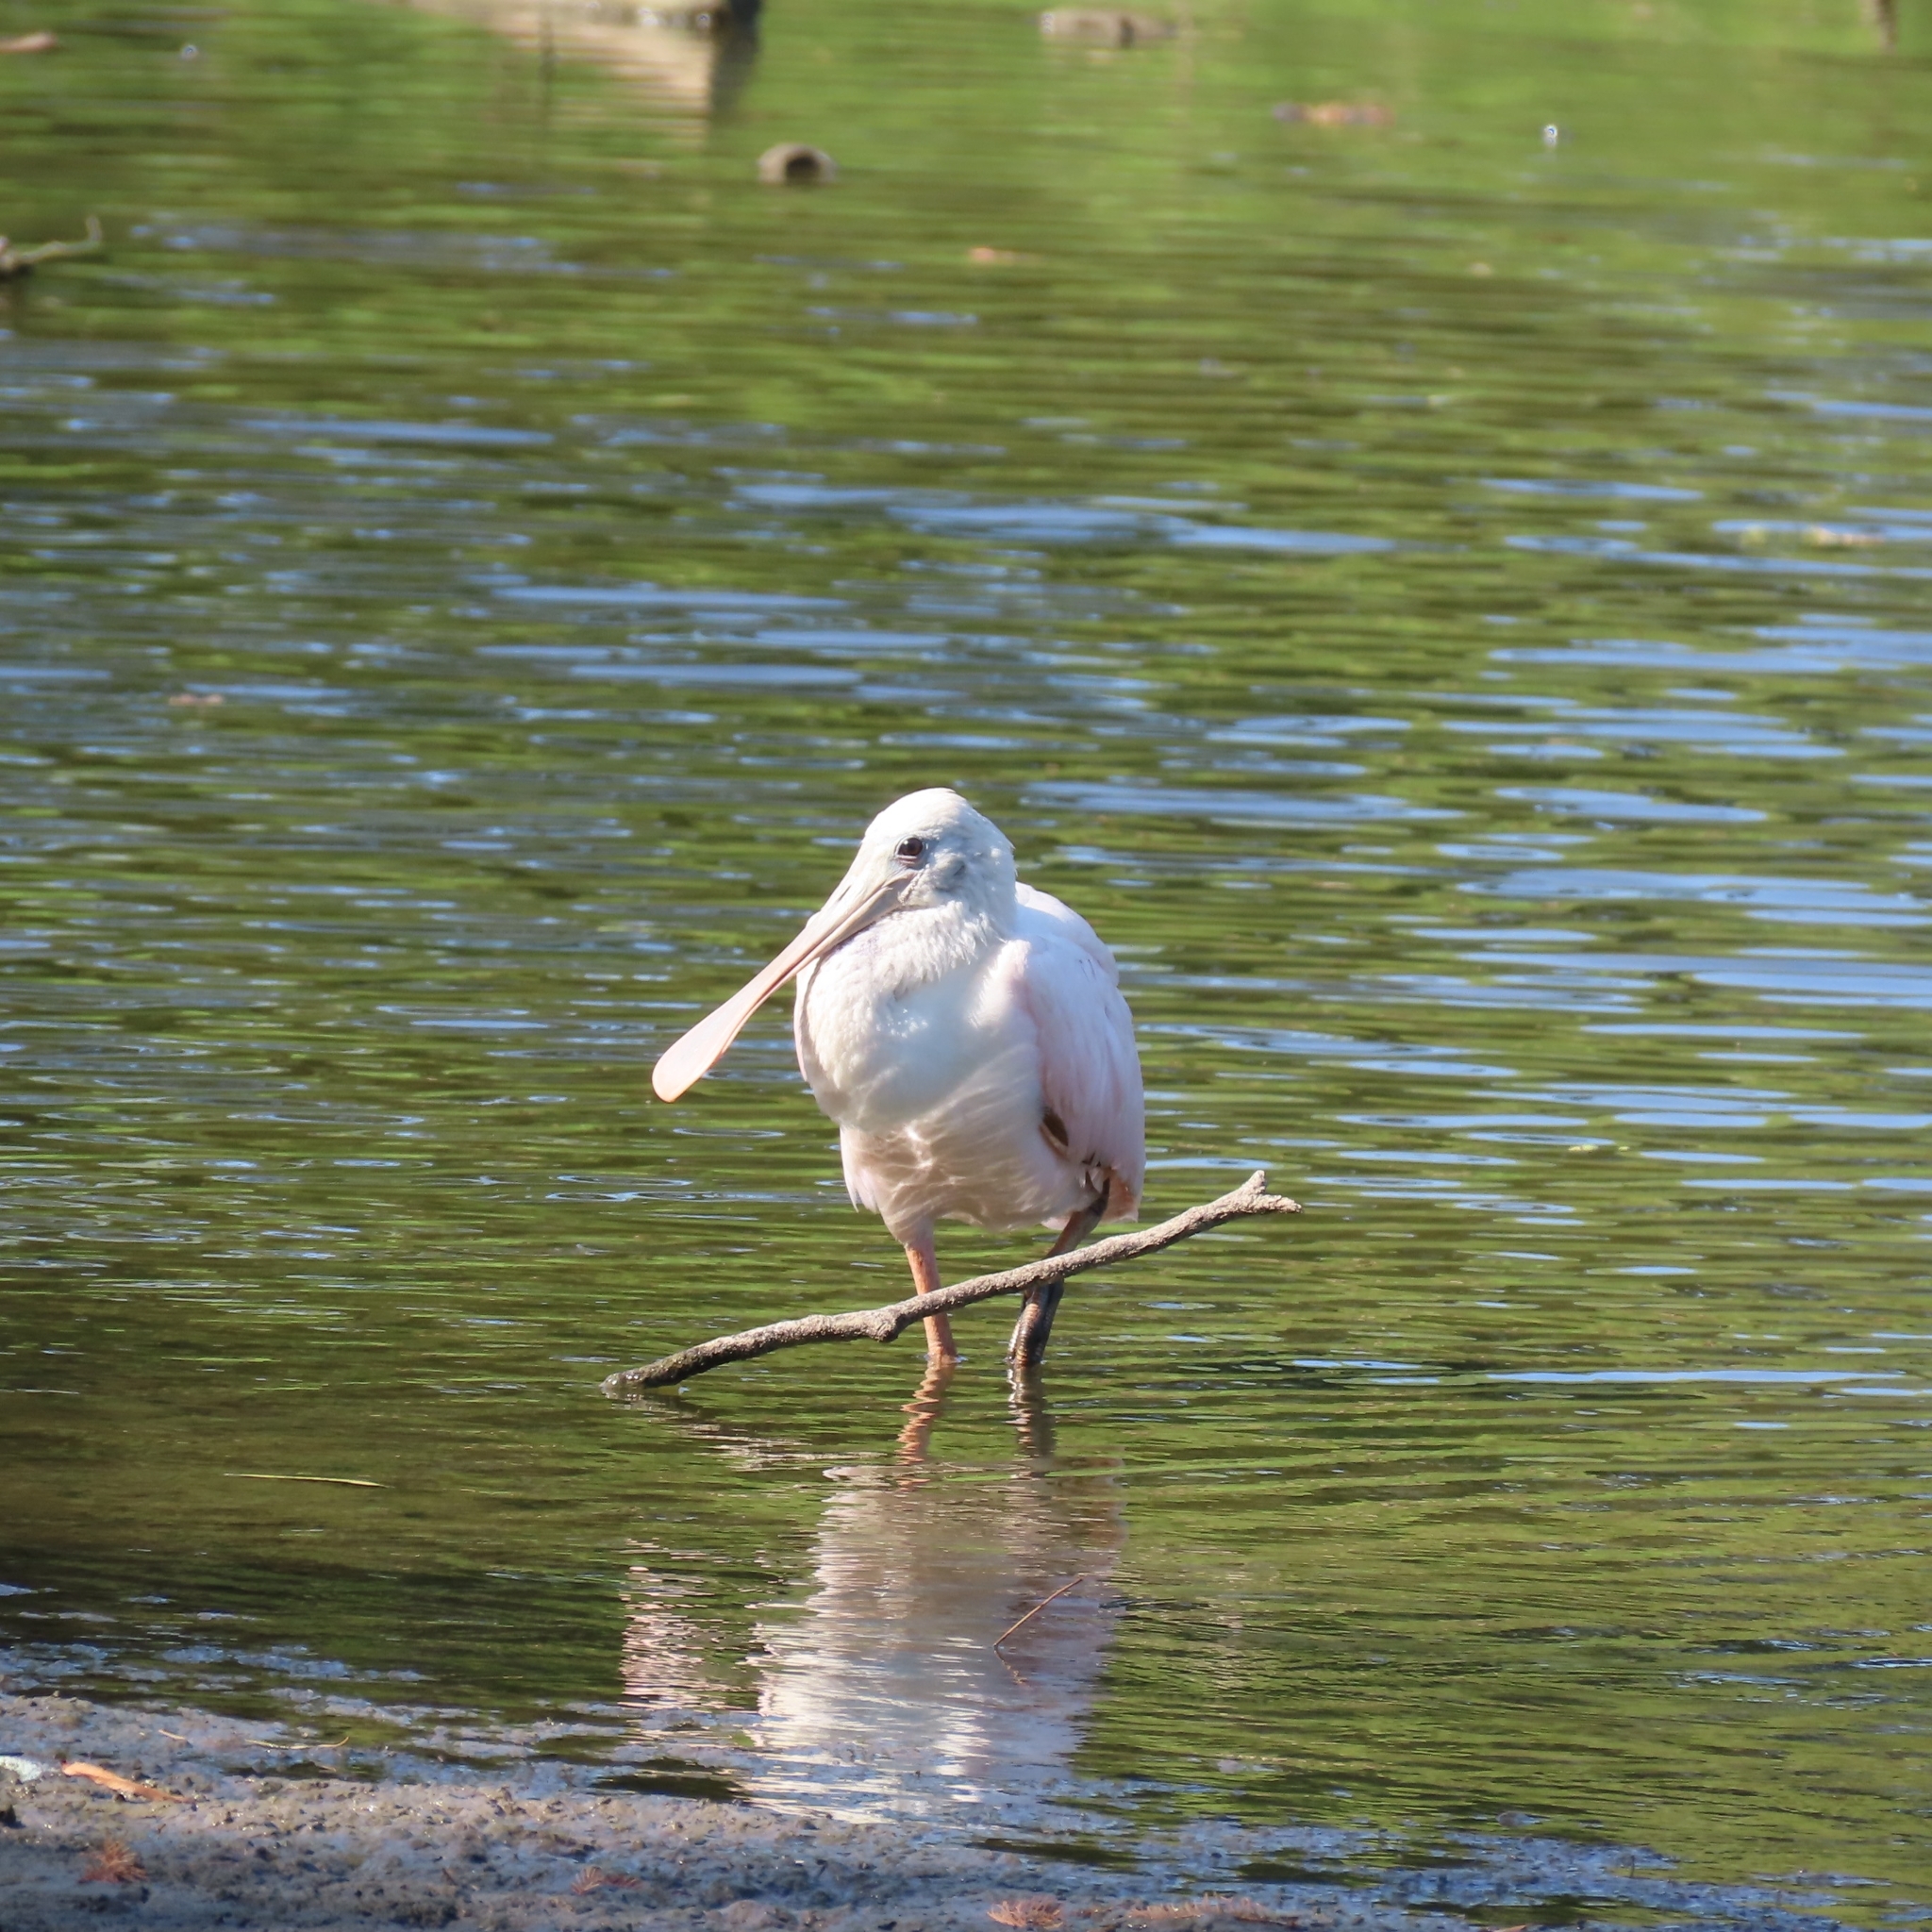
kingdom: Animalia
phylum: Chordata
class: Aves
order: Pelecaniformes
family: Threskiornithidae
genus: Platalea
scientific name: Platalea ajaja
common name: Roseate spoonbill
